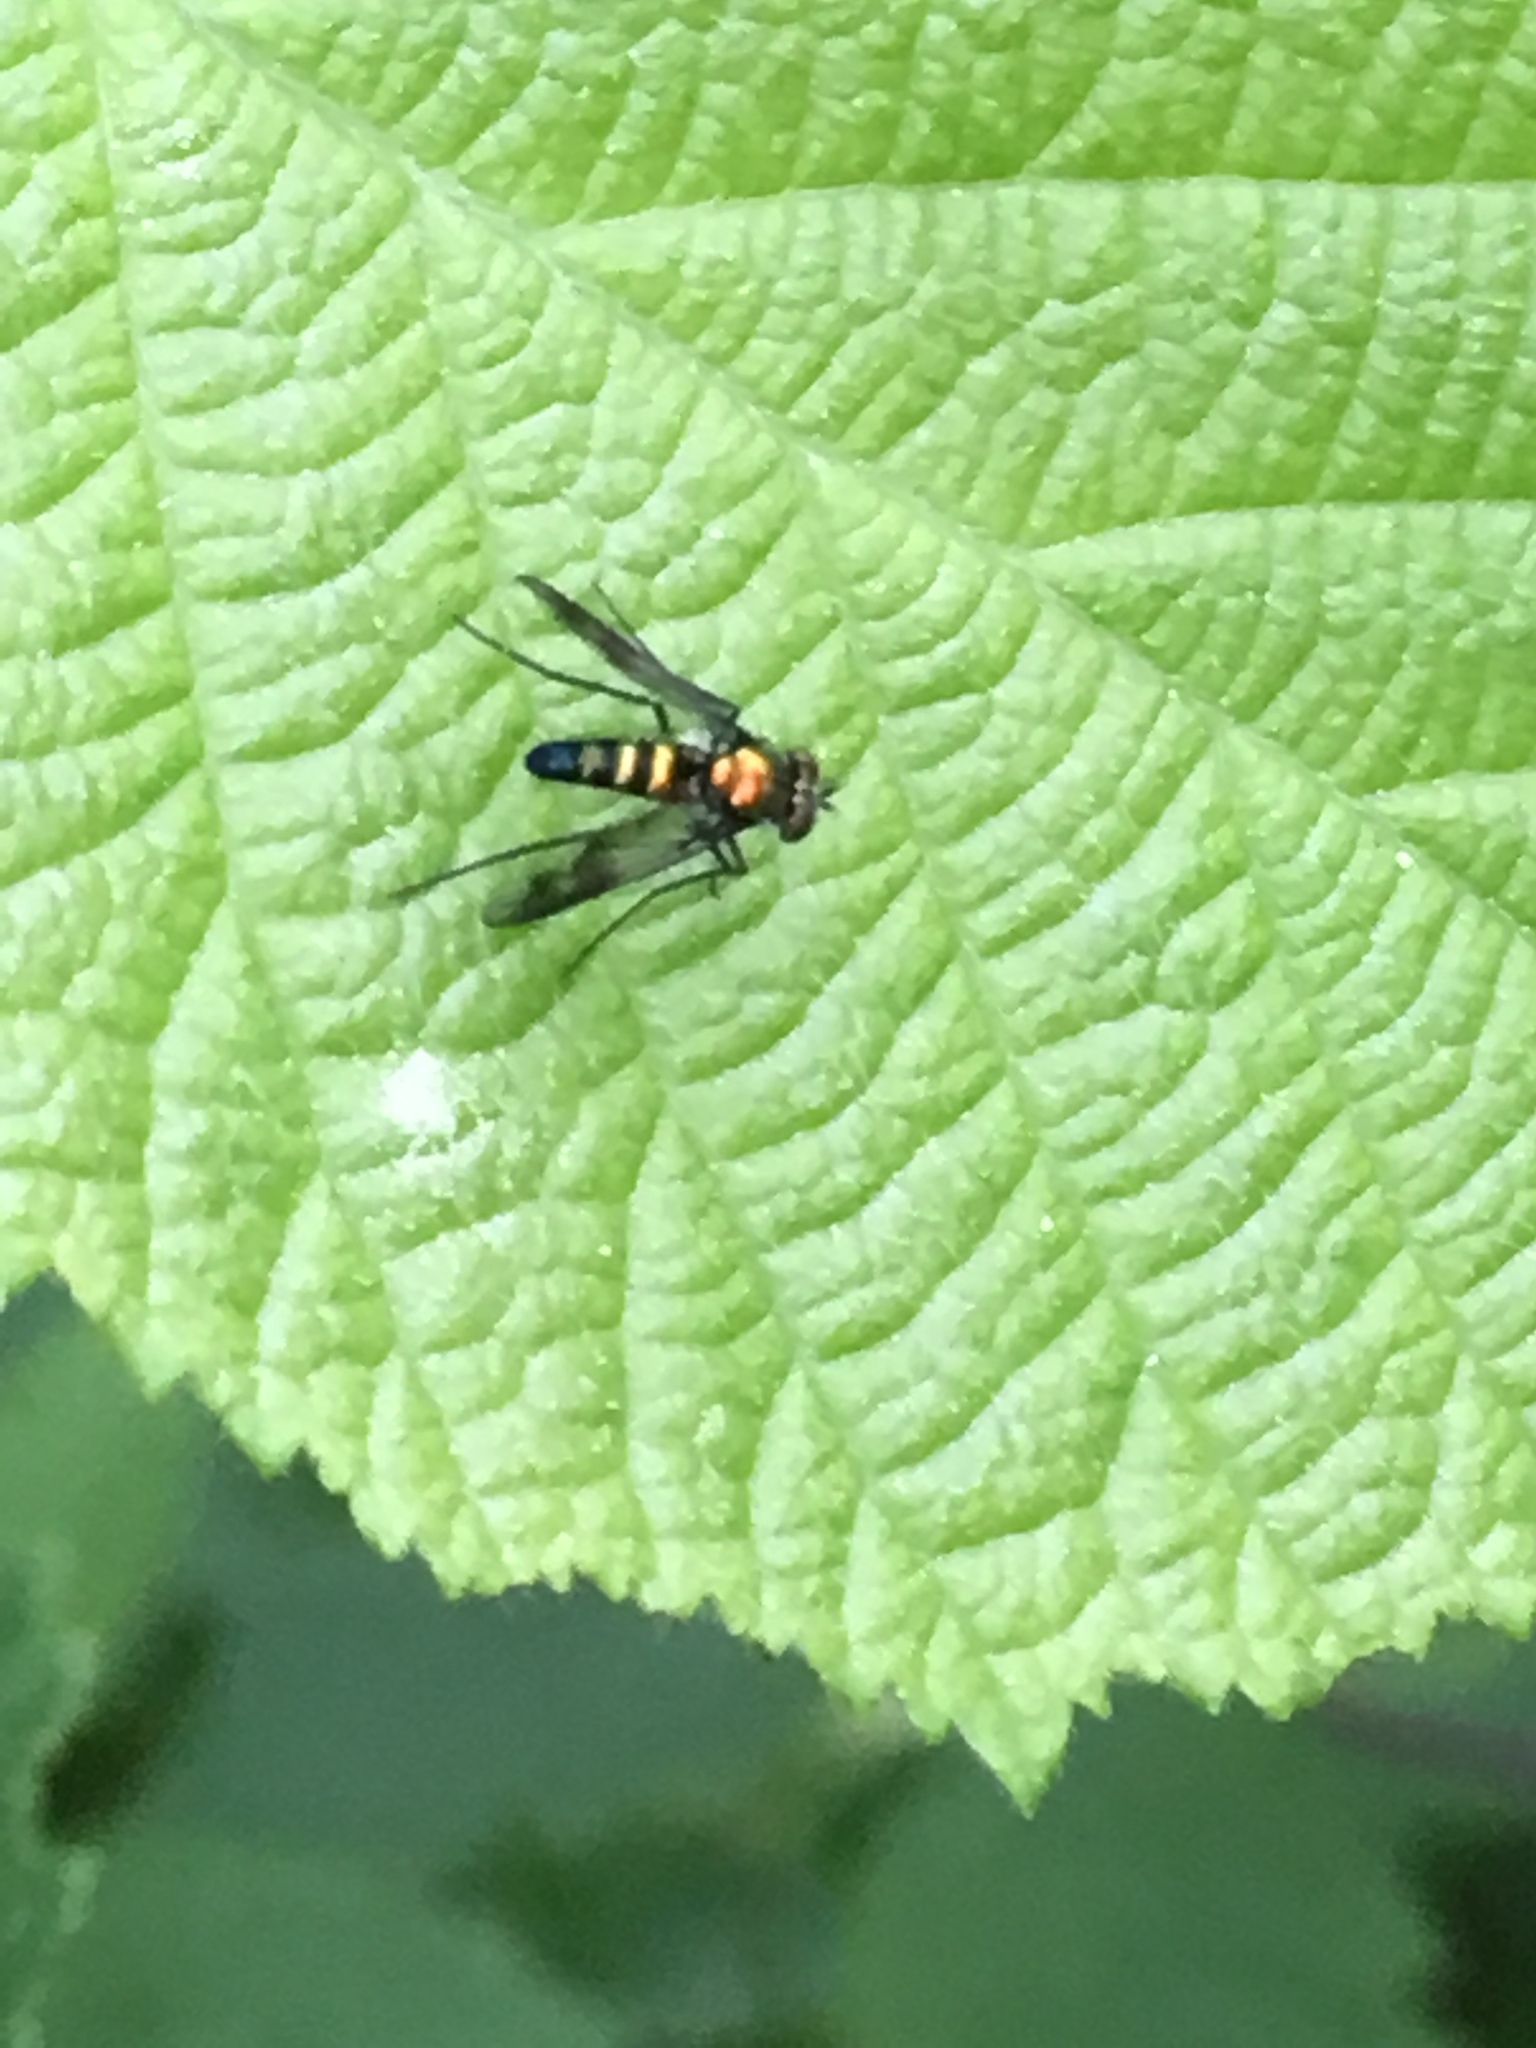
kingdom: Animalia
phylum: Arthropoda
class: Insecta
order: Diptera
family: Dolichopodidae
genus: Condylostylus
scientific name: Condylostylus patibulatus
